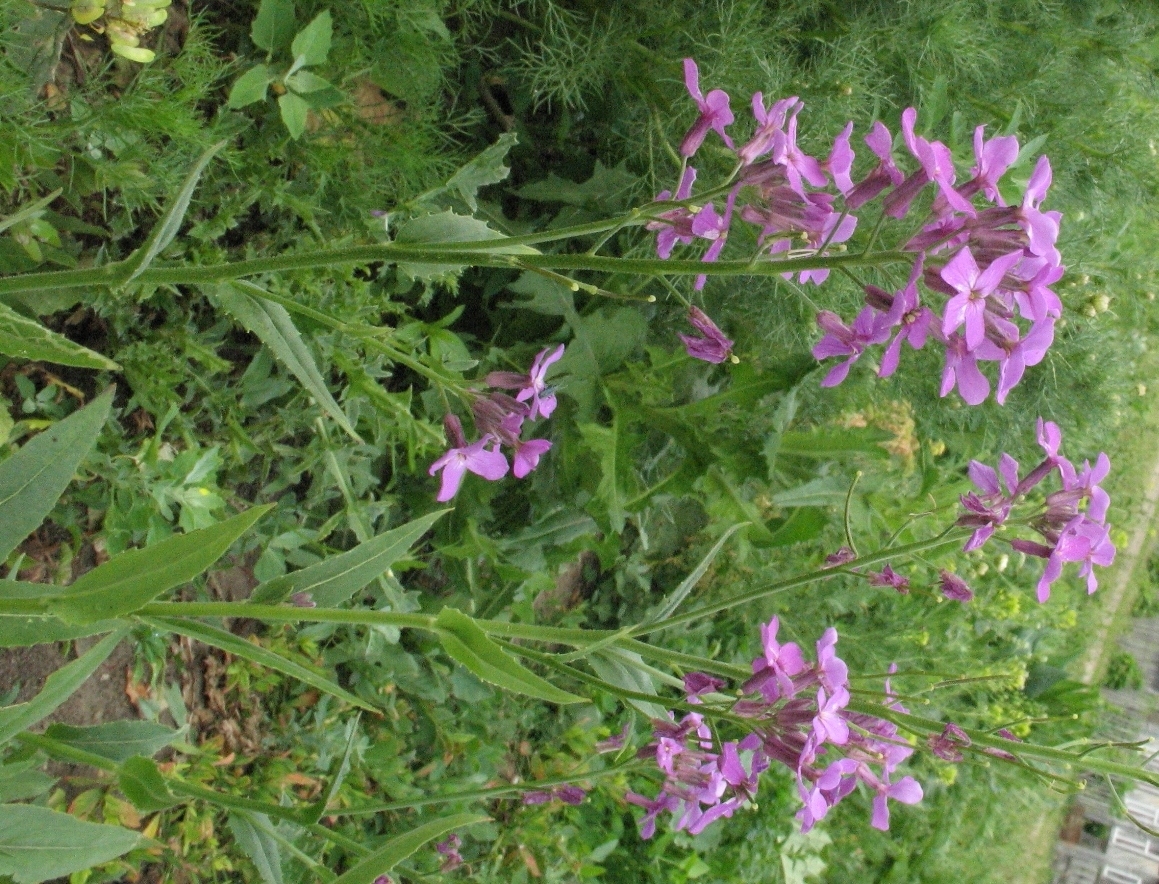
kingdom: Plantae
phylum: Tracheophyta
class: Magnoliopsida
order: Brassicales
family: Brassicaceae
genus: Hesperis
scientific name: Hesperis matronalis
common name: Dame's-violet
